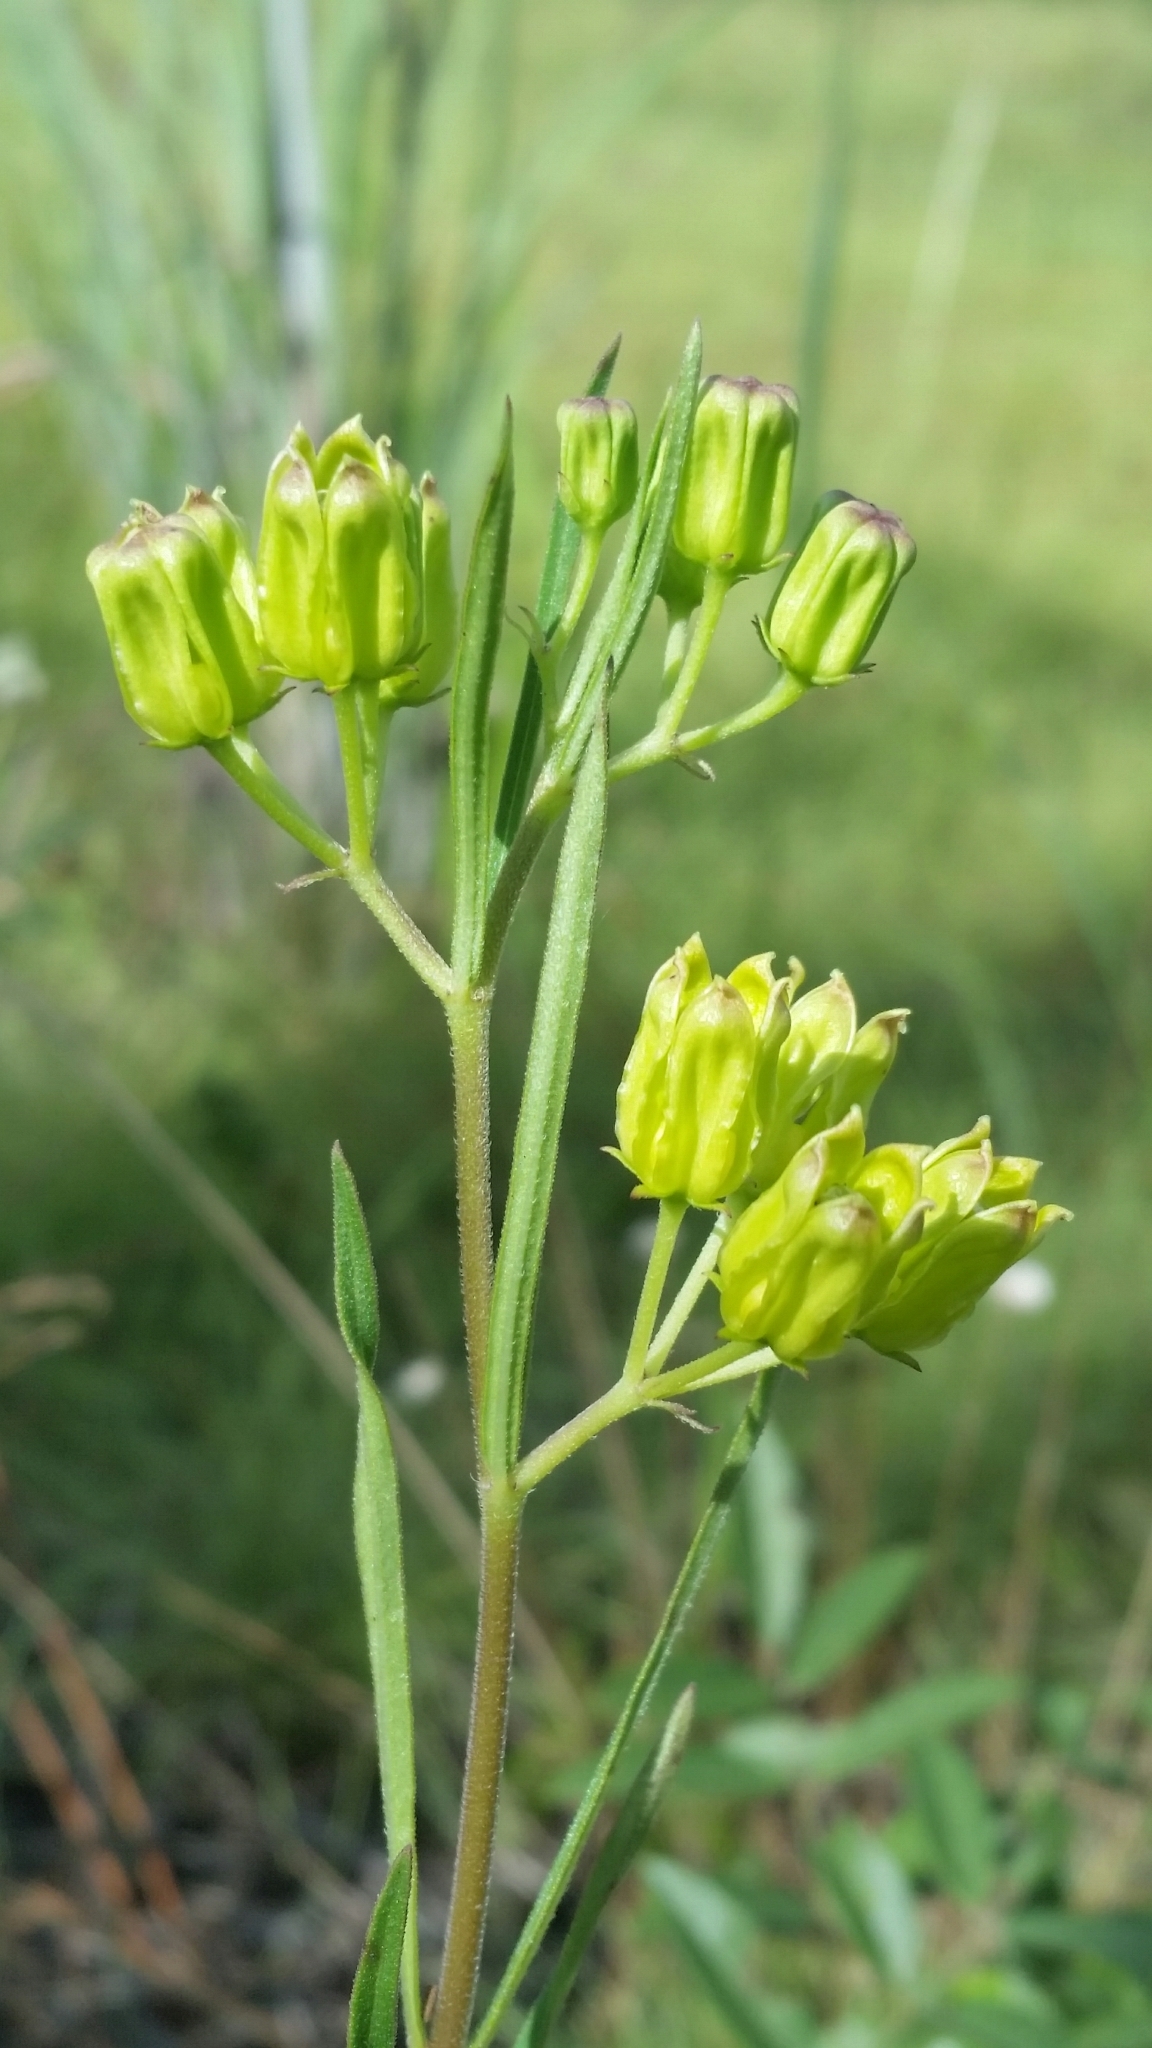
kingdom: Plantae
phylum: Tracheophyta
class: Magnoliopsida
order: Gentianales
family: Apocynaceae
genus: Asclepias
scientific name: Asclepias pedicellata
